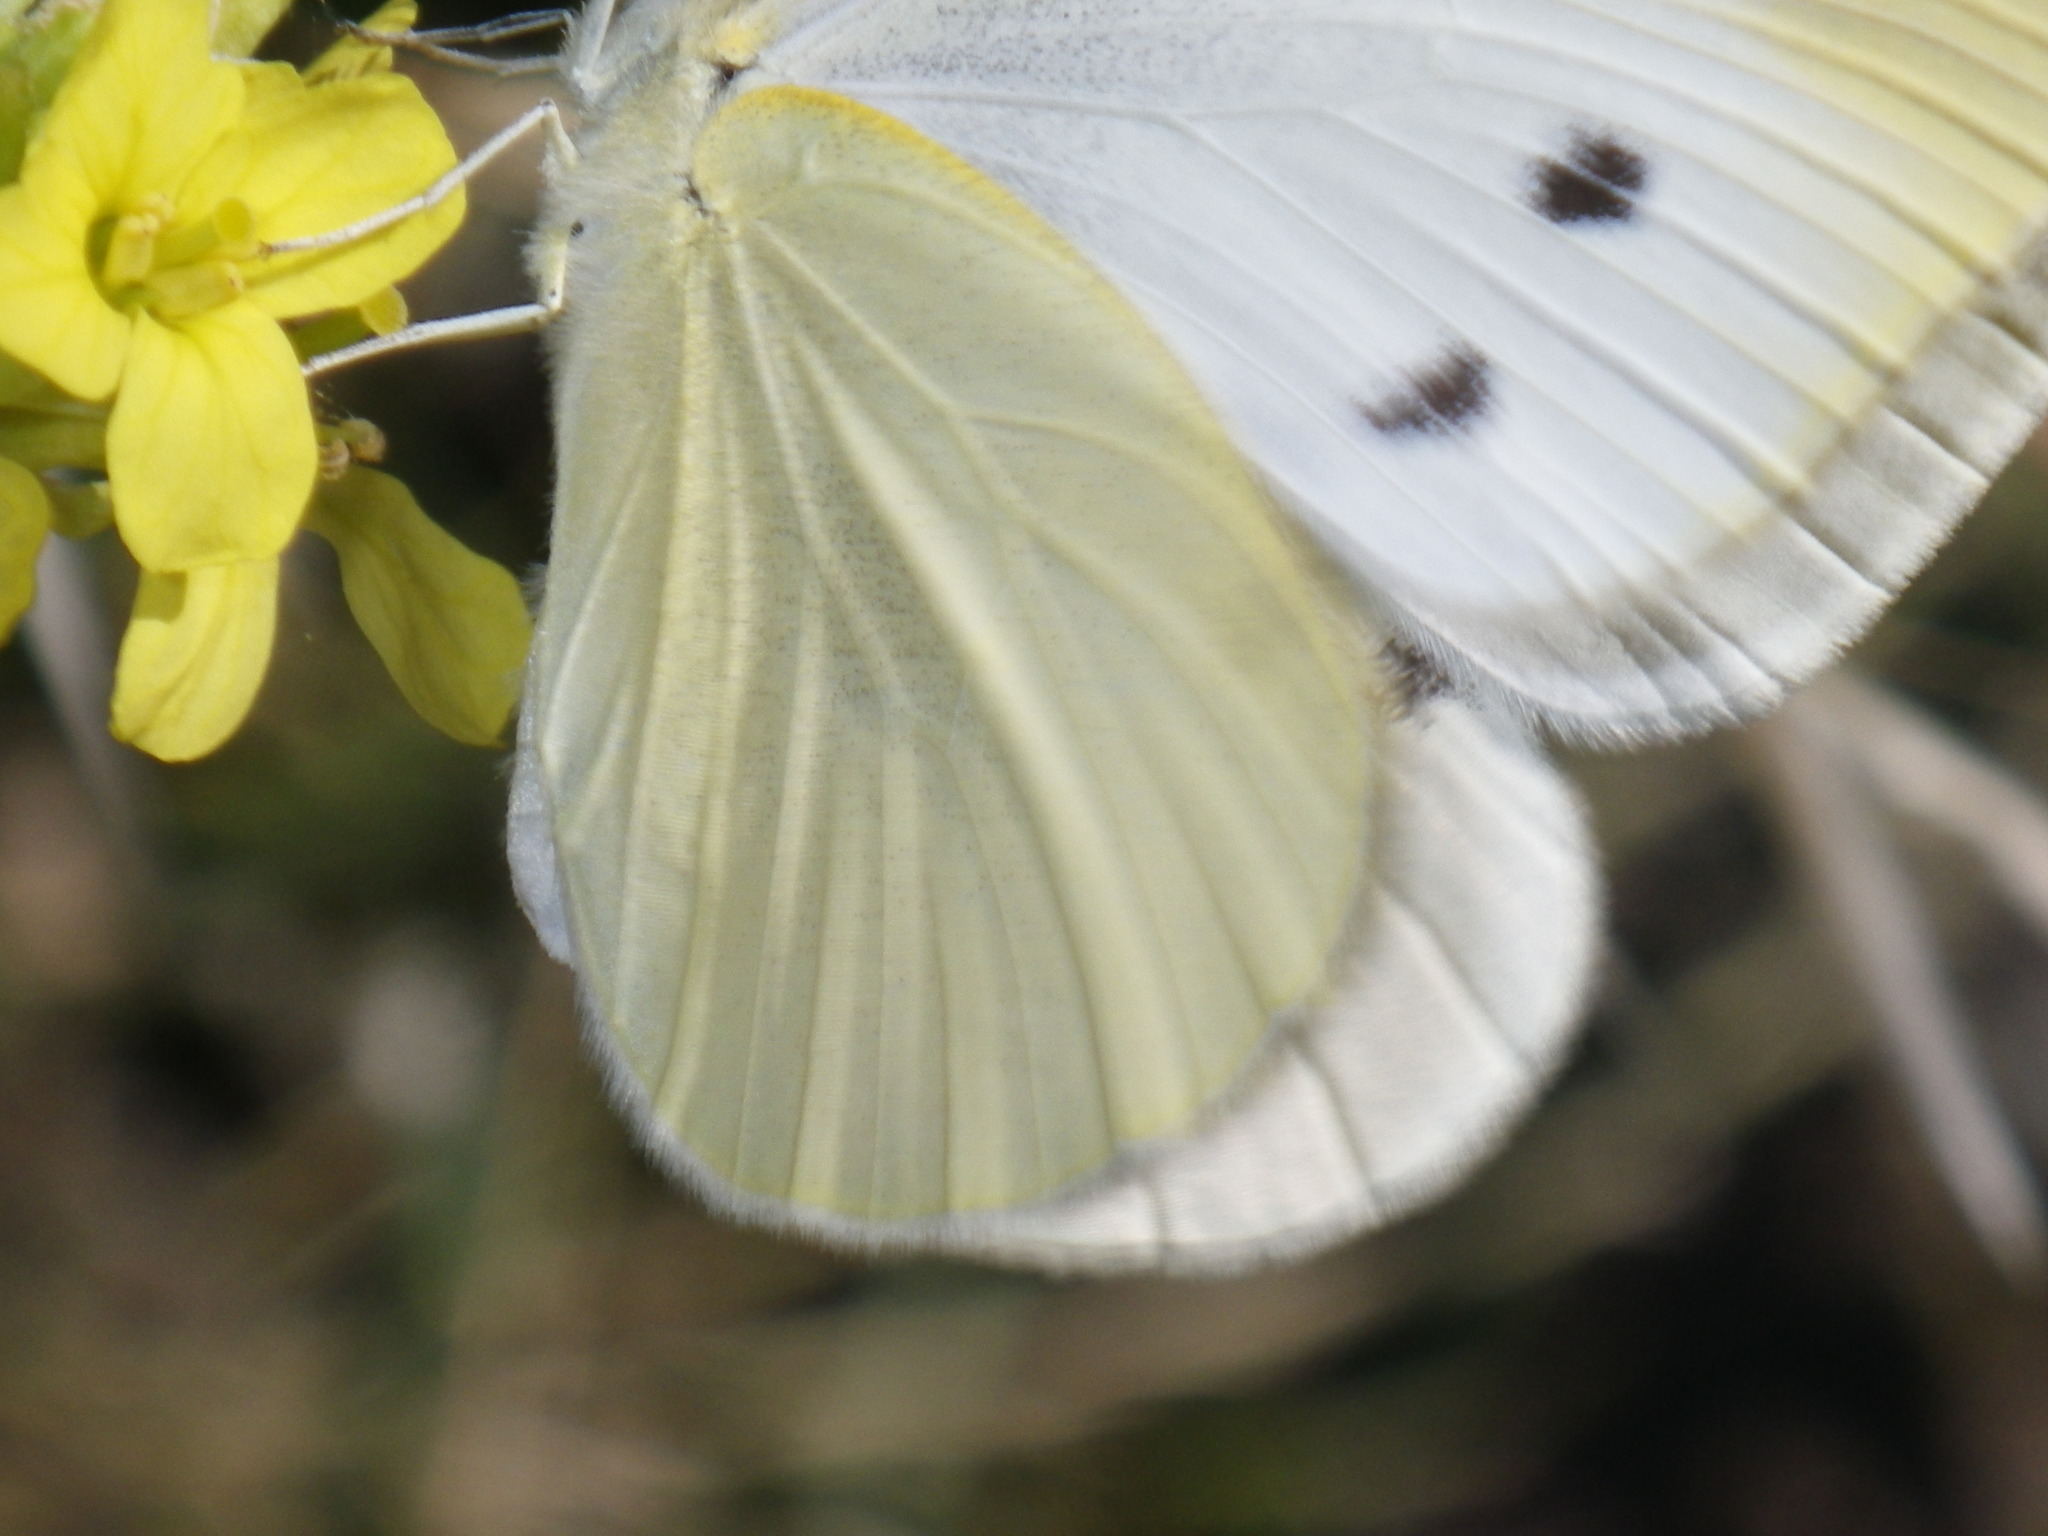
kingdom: Animalia
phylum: Arthropoda
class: Insecta
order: Lepidoptera
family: Pieridae
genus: Pieris
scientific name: Pieris rapae
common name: Small white
